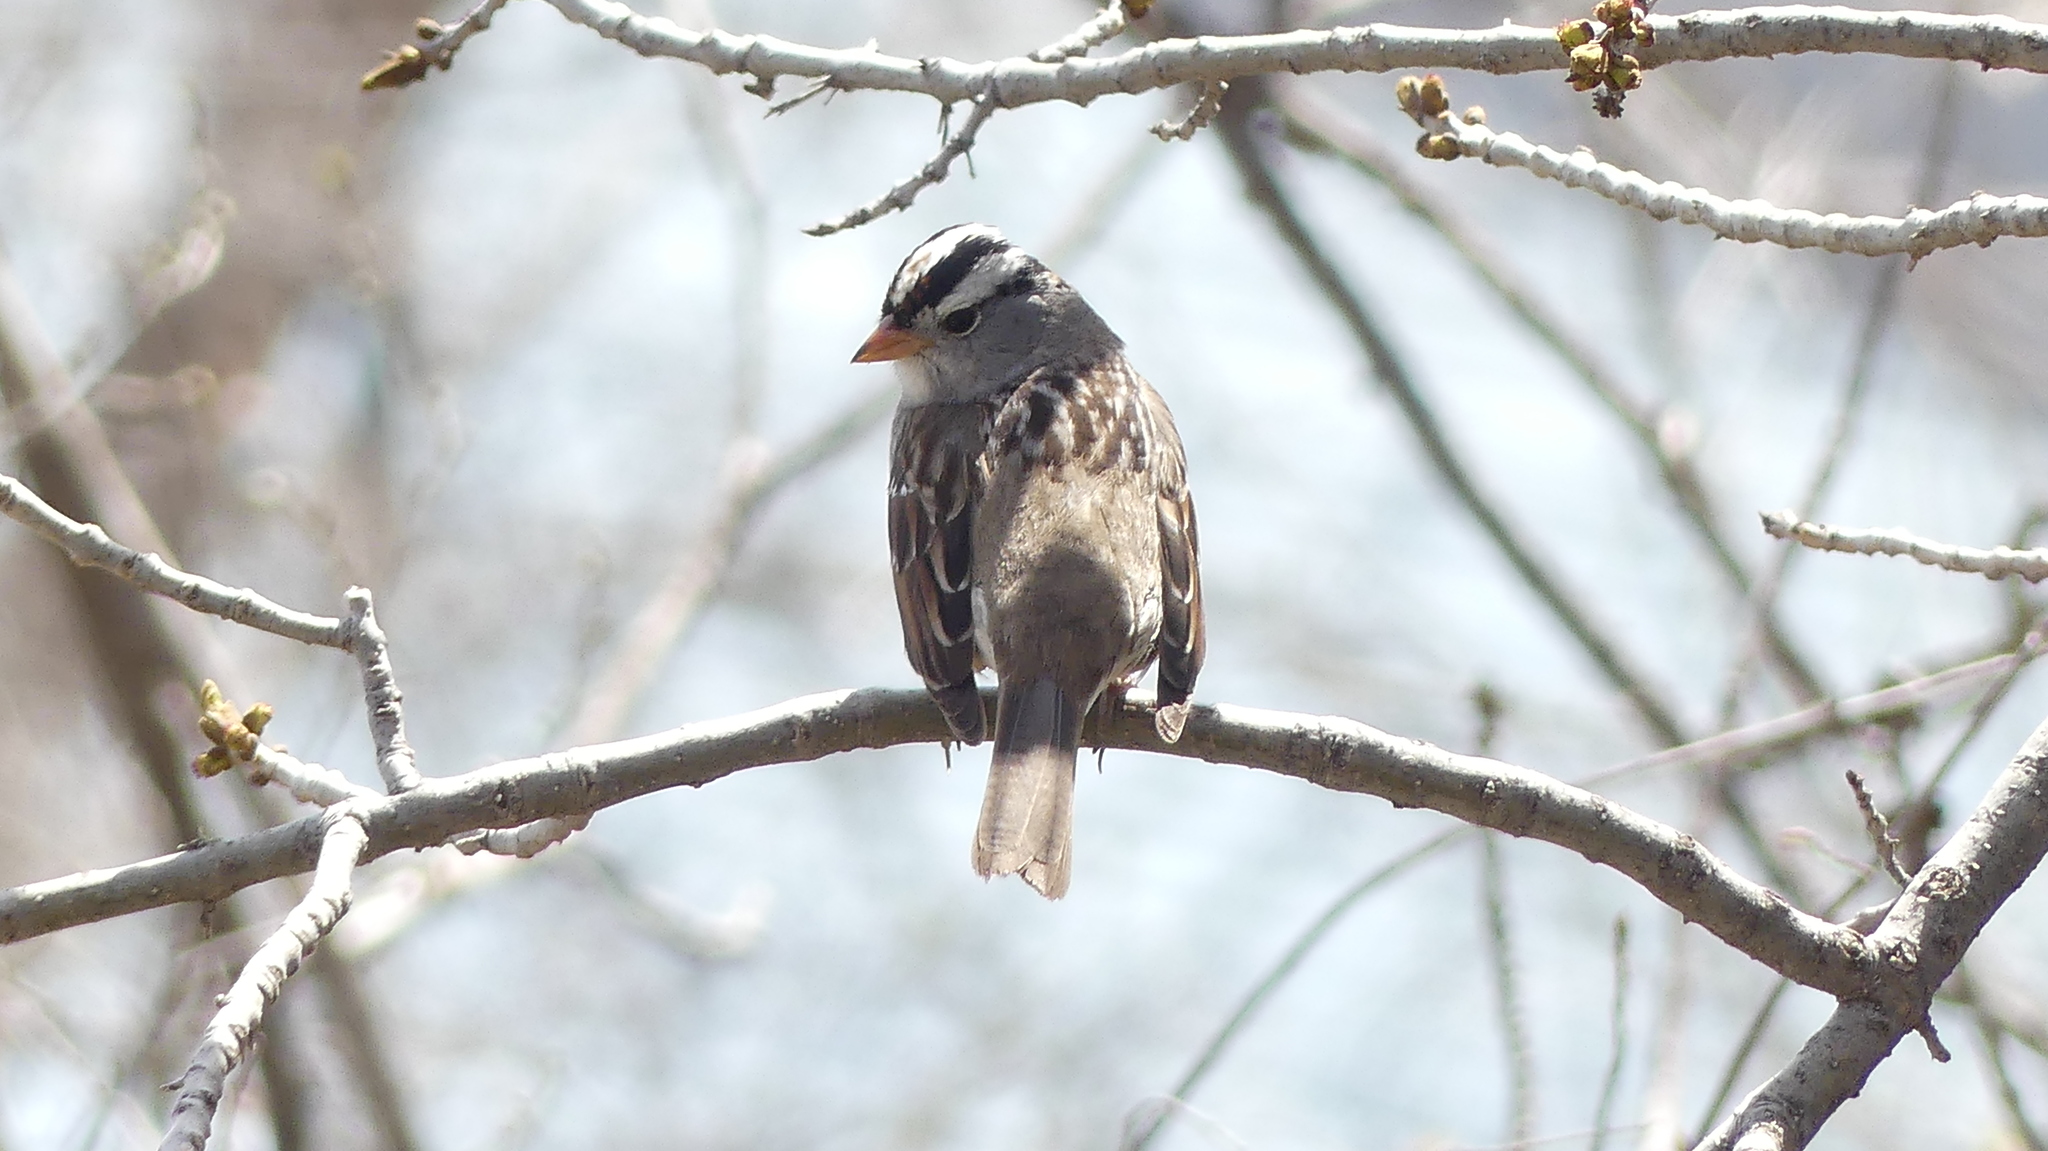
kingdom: Animalia
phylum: Chordata
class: Aves
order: Passeriformes
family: Passerellidae
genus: Zonotrichia
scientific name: Zonotrichia leucophrys
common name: White-crowned sparrow
